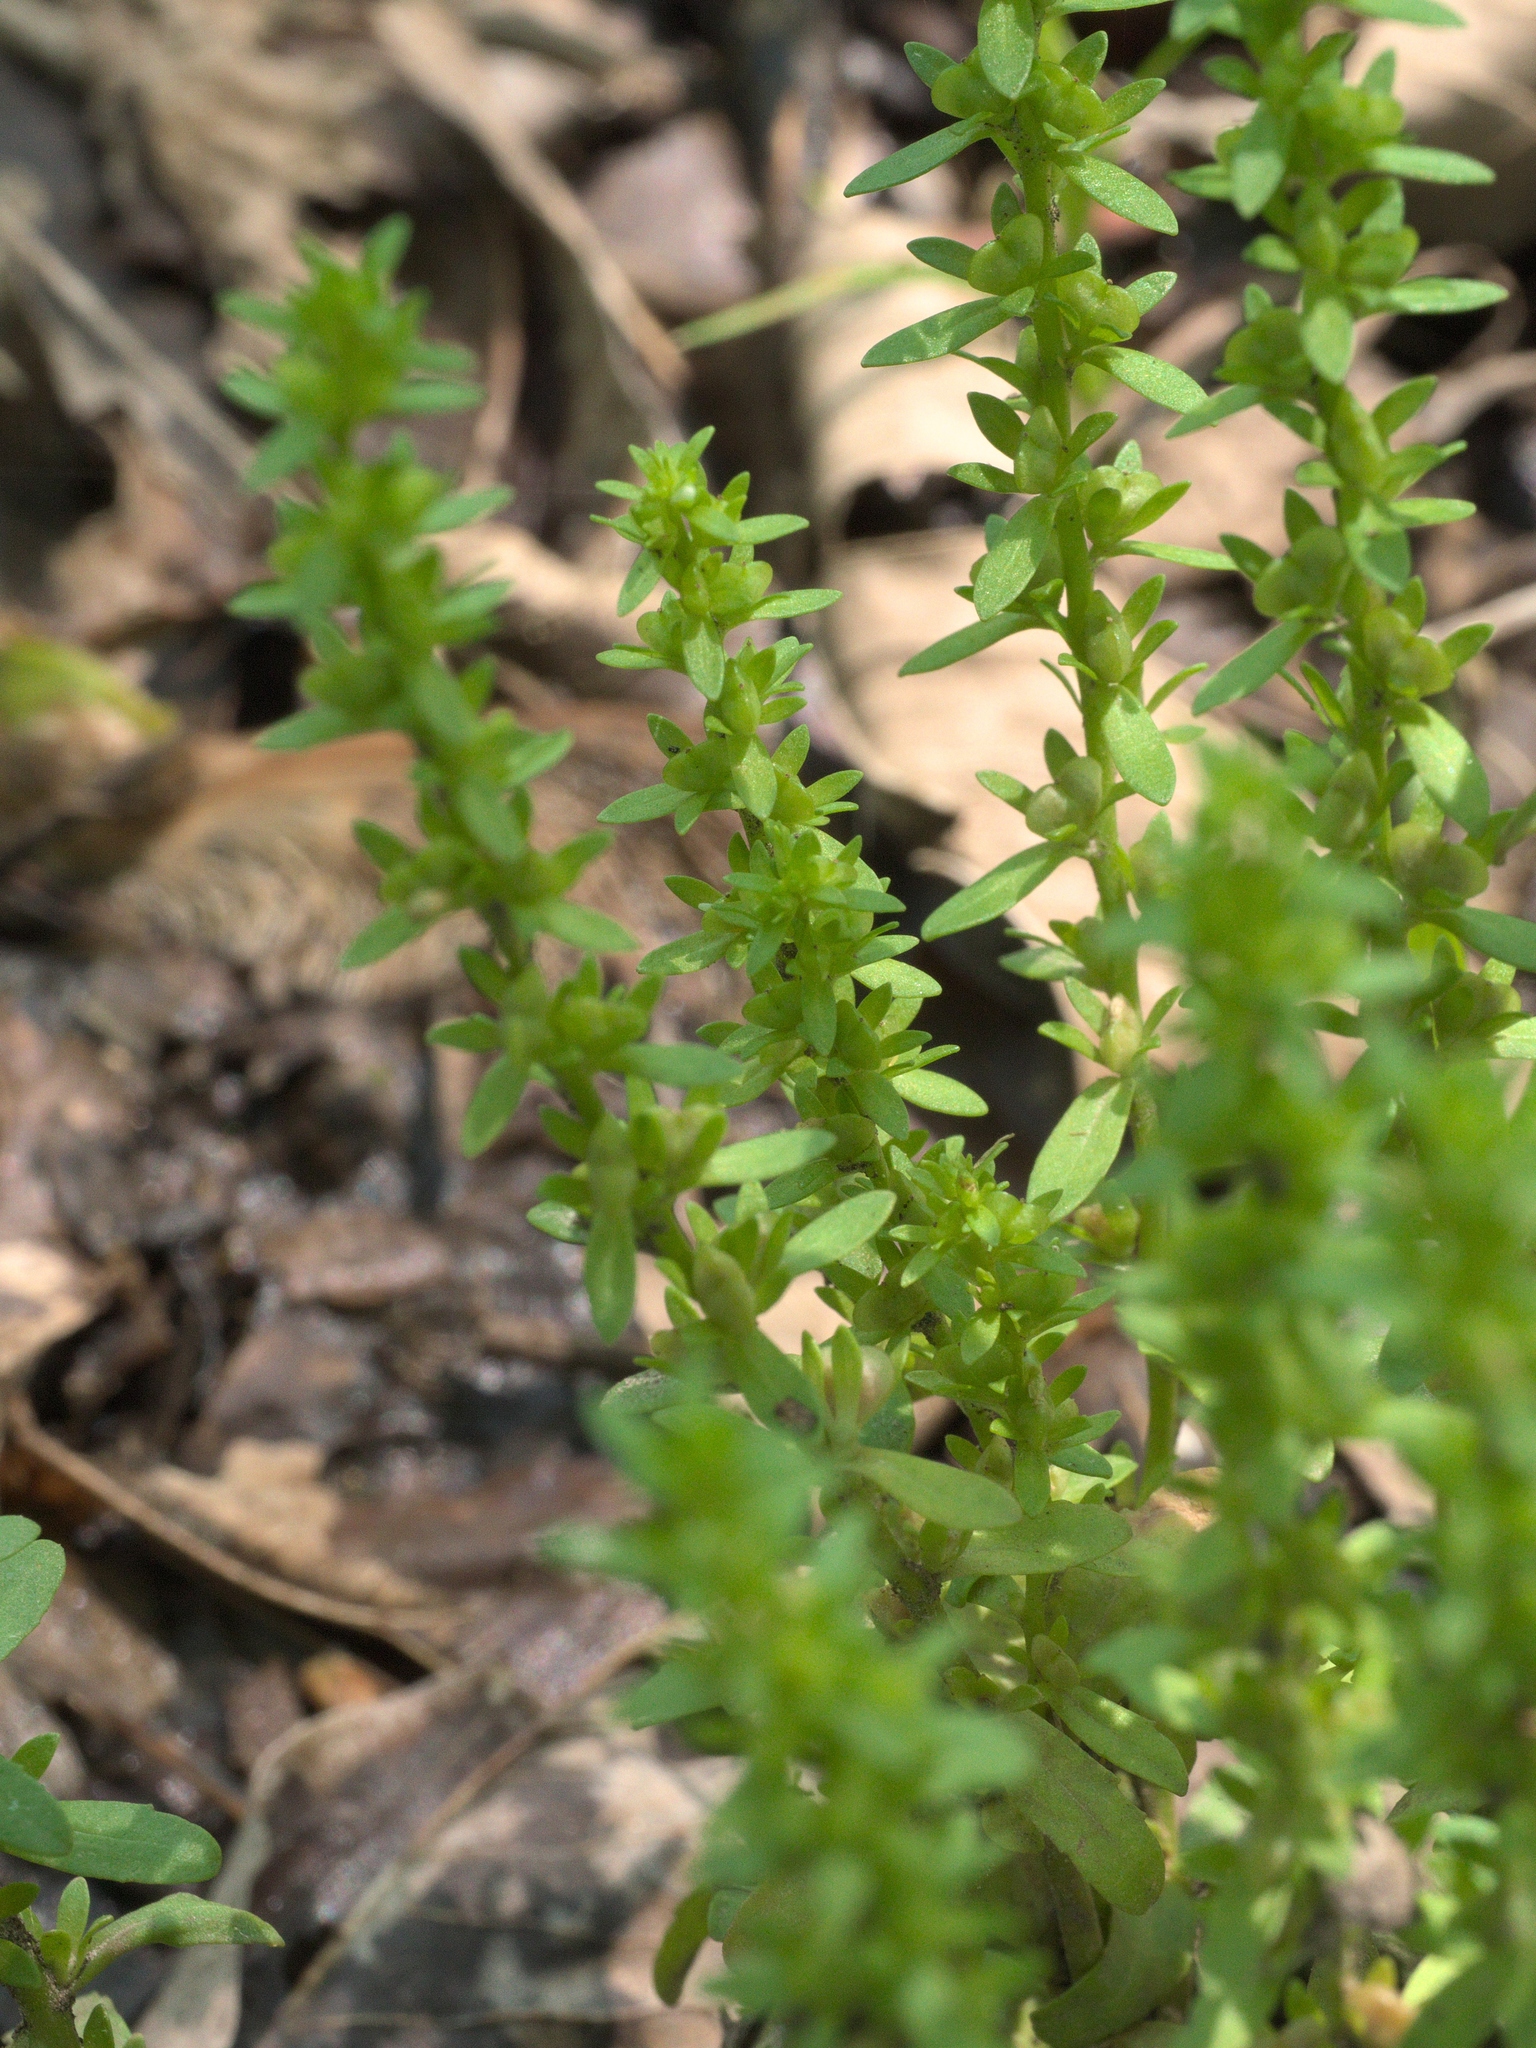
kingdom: Plantae
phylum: Tracheophyta
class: Magnoliopsida
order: Lamiales
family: Plantaginaceae
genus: Veronica
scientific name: Veronica peregrina
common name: Neckweed
